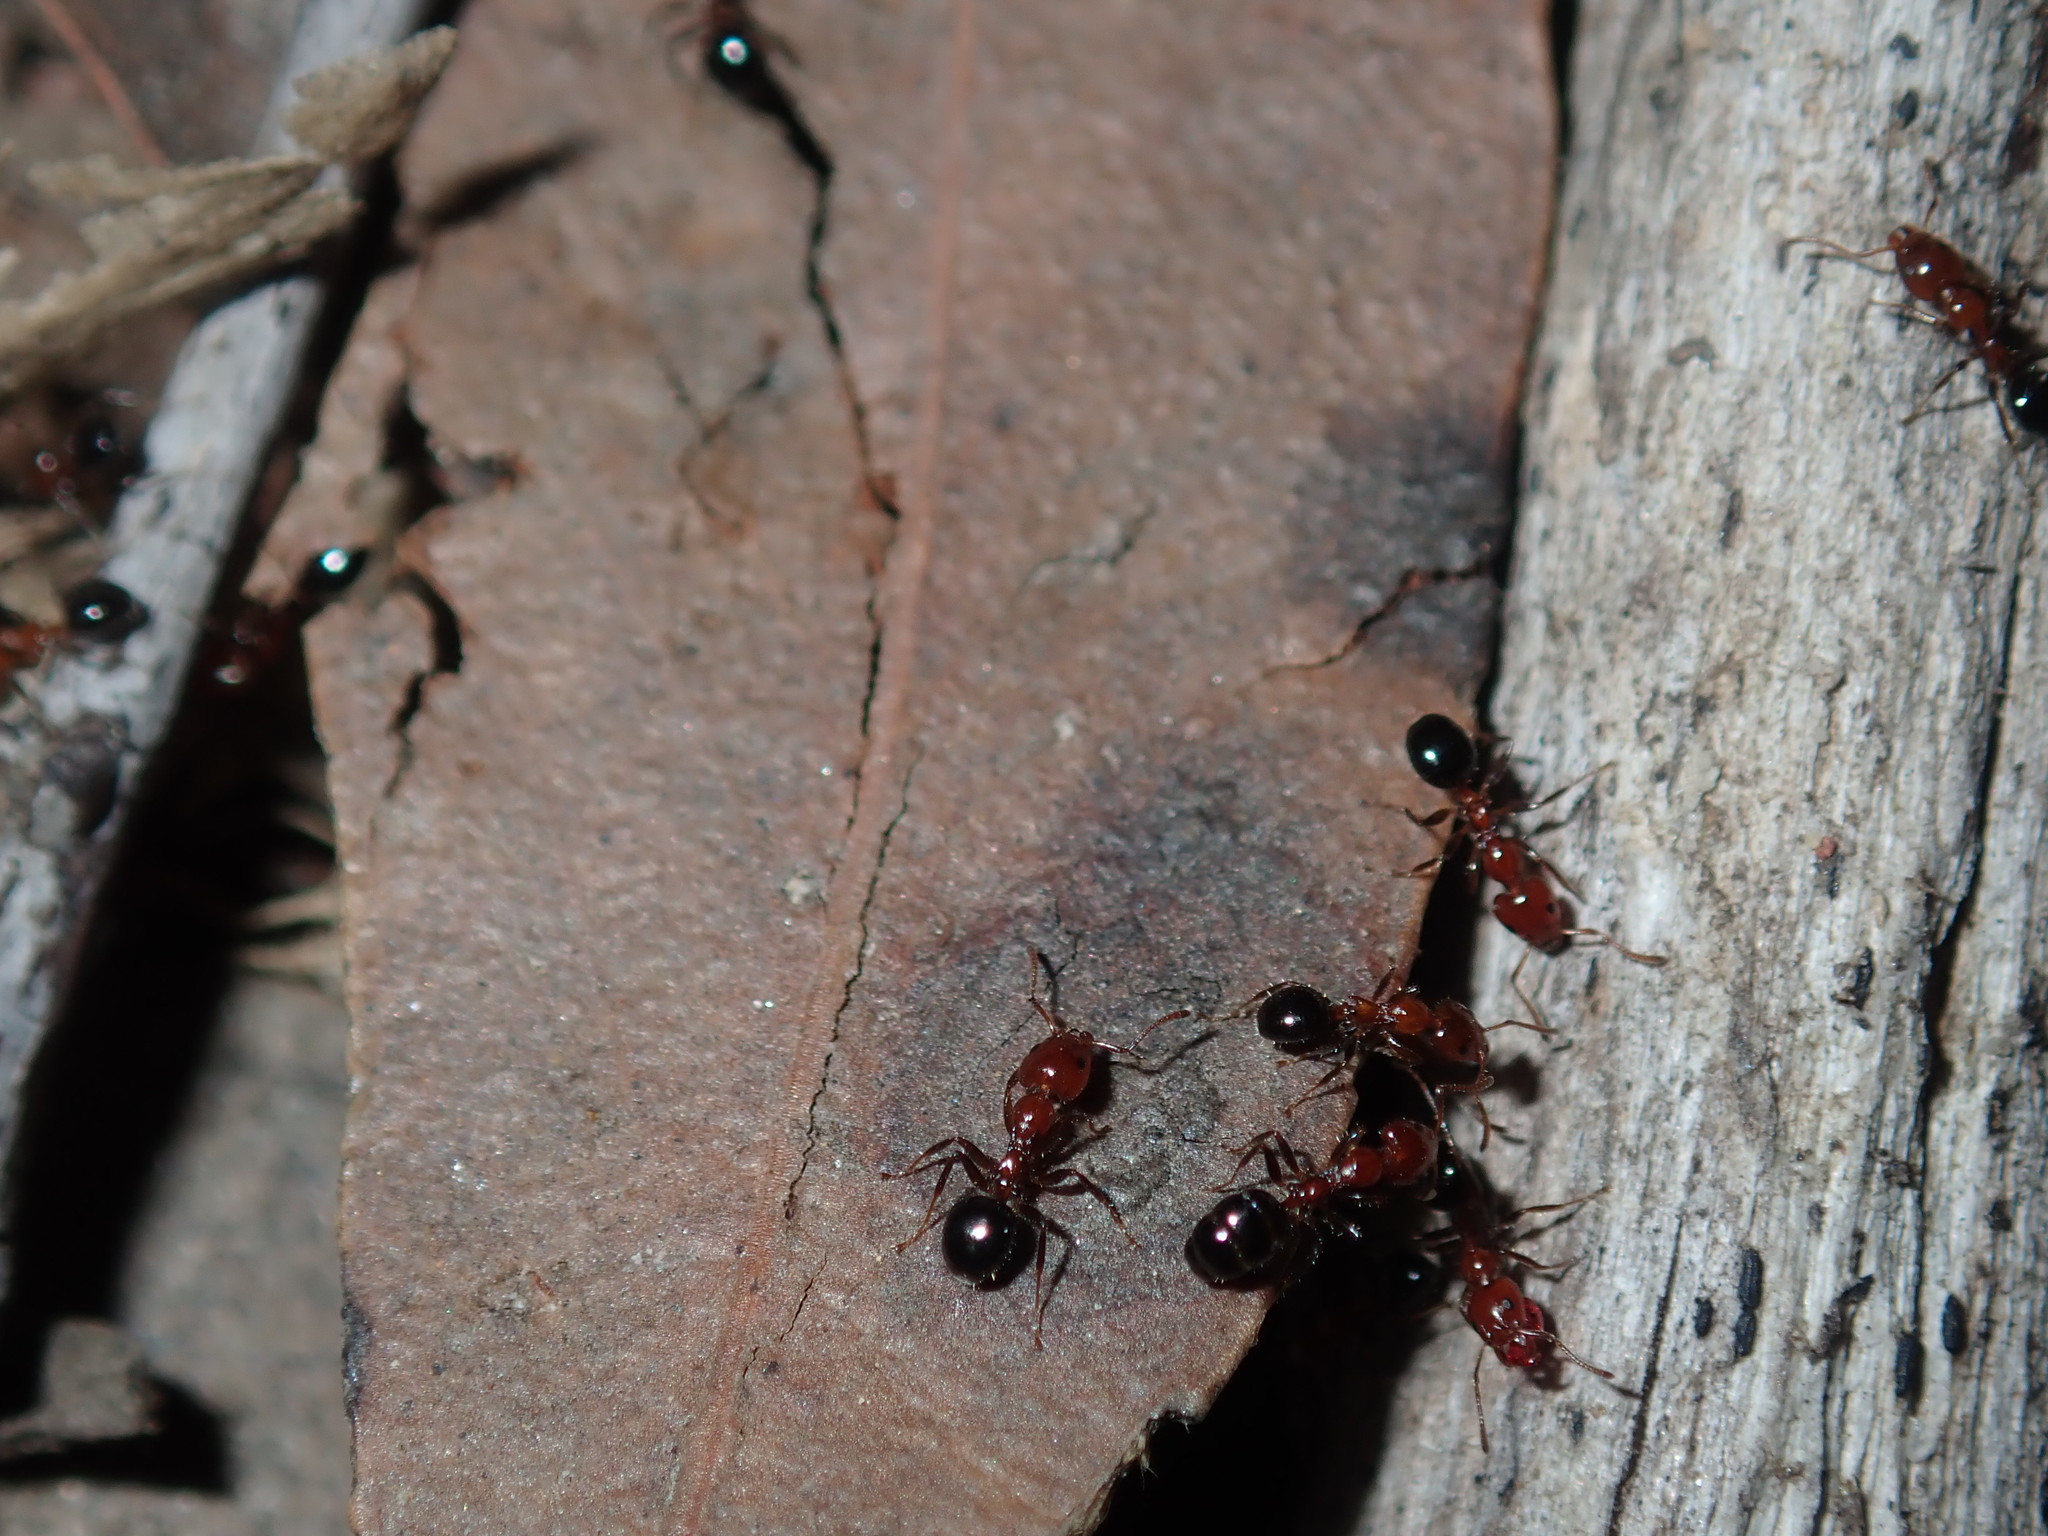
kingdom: Animalia
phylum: Arthropoda
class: Insecta
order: Hymenoptera
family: Formicidae
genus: Froggattella
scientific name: Froggattella kirbii
